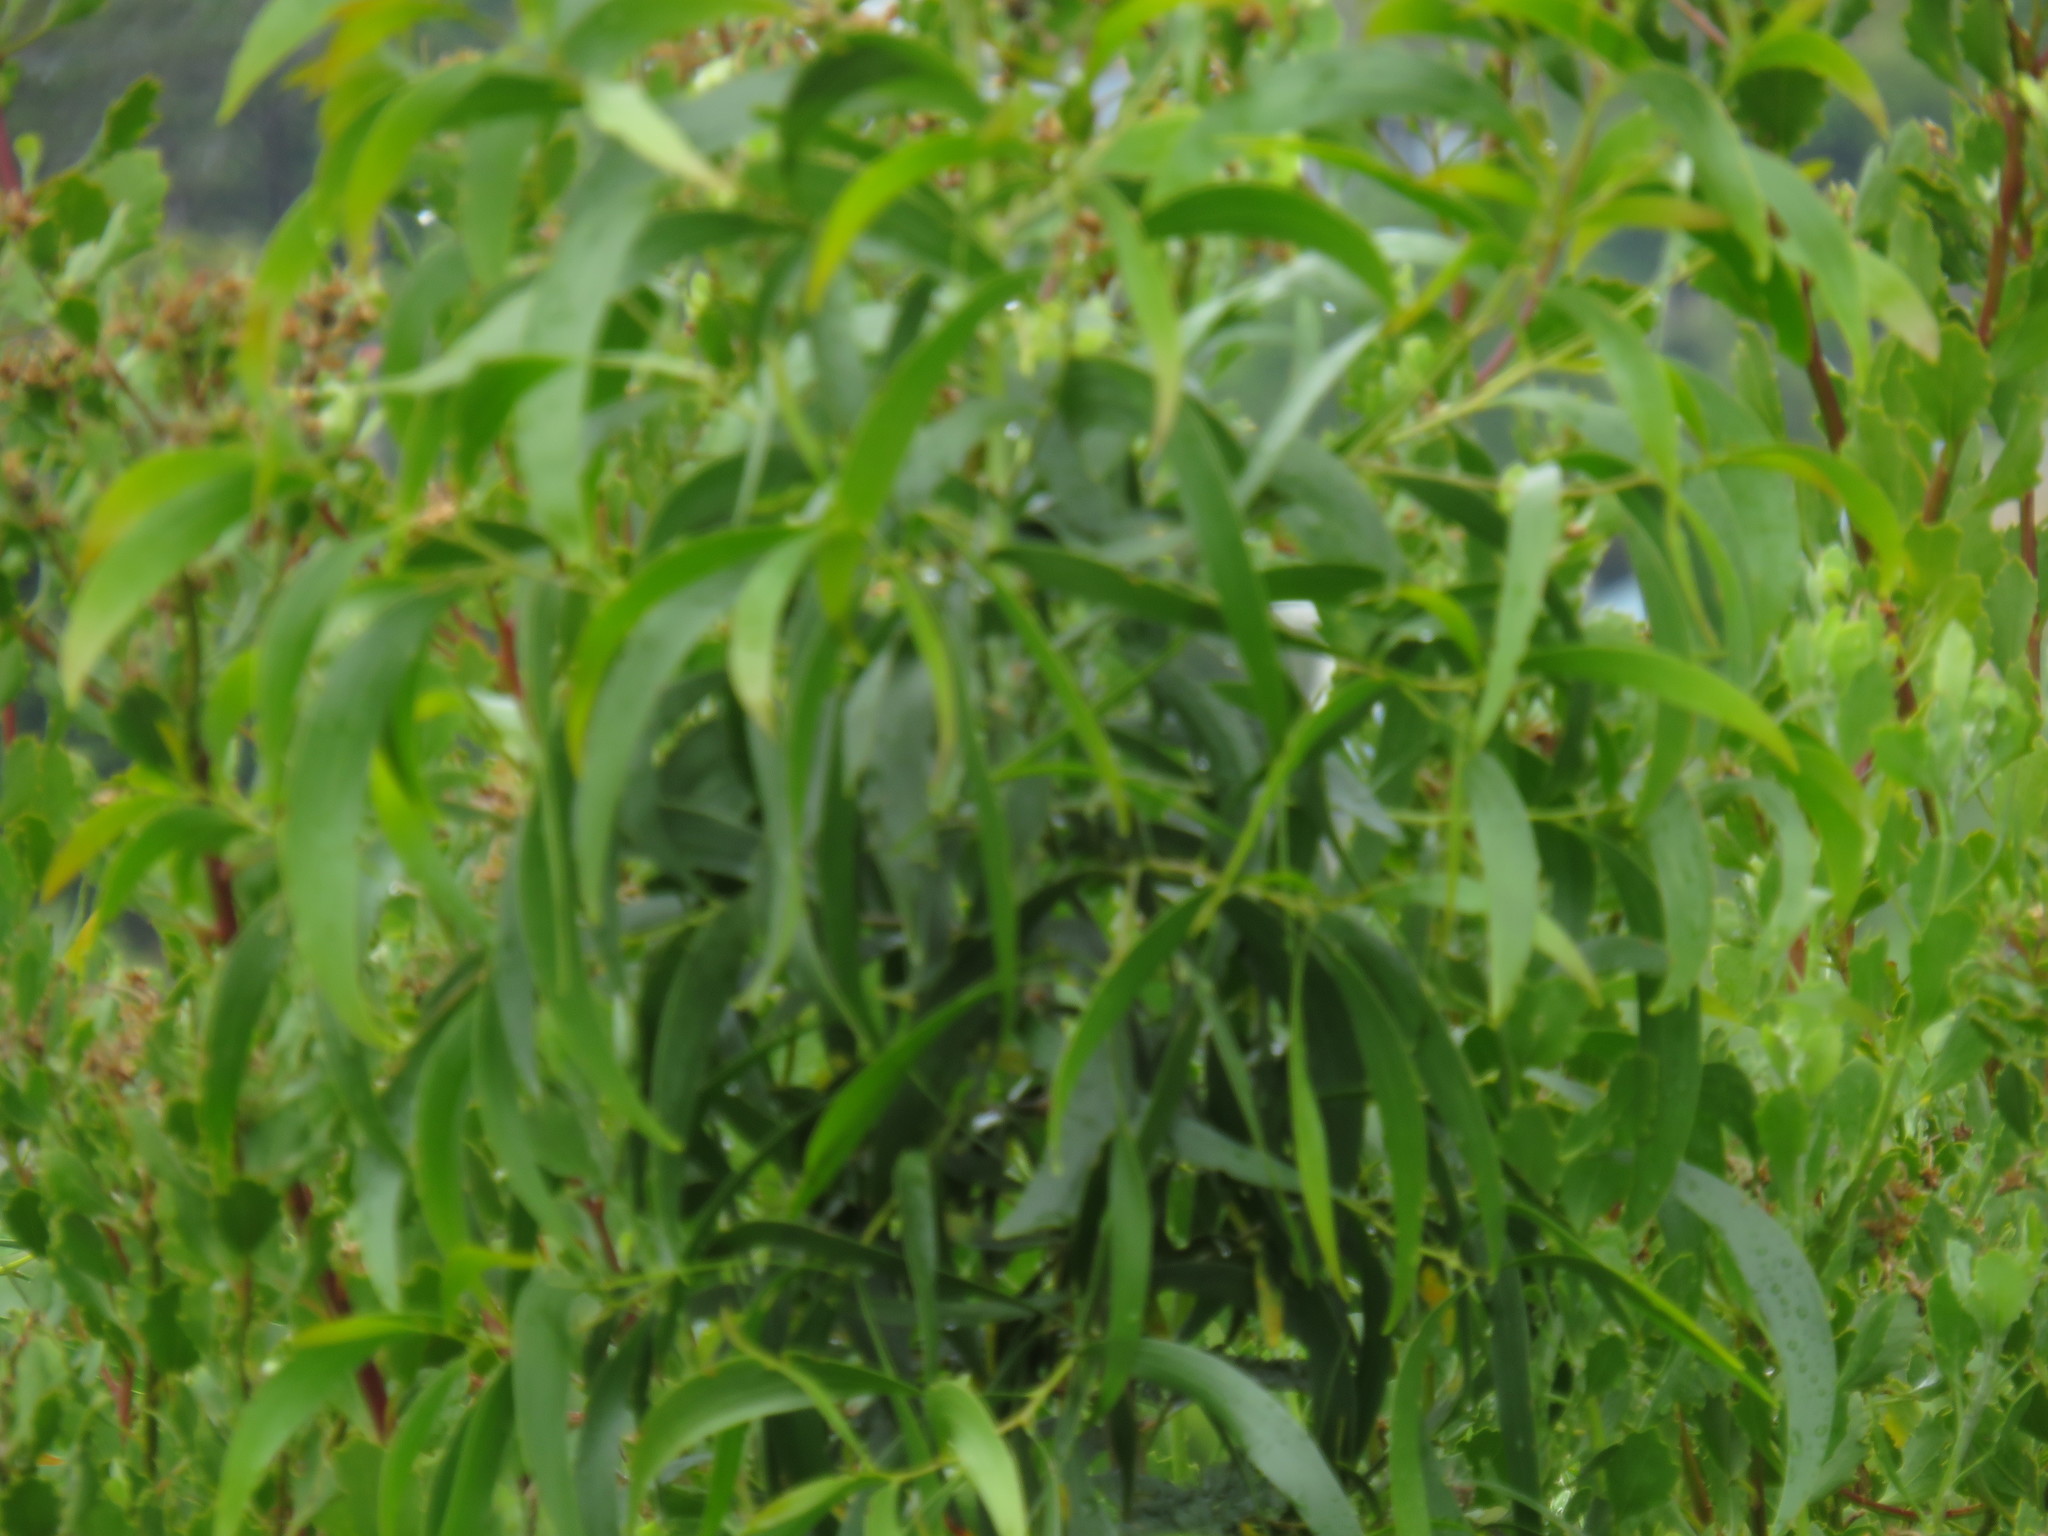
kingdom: Plantae
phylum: Tracheophyta
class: Magnoliopsida
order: Fabales
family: Fabaceae
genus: Acacia
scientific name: Acacia implexa
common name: Black wattle
